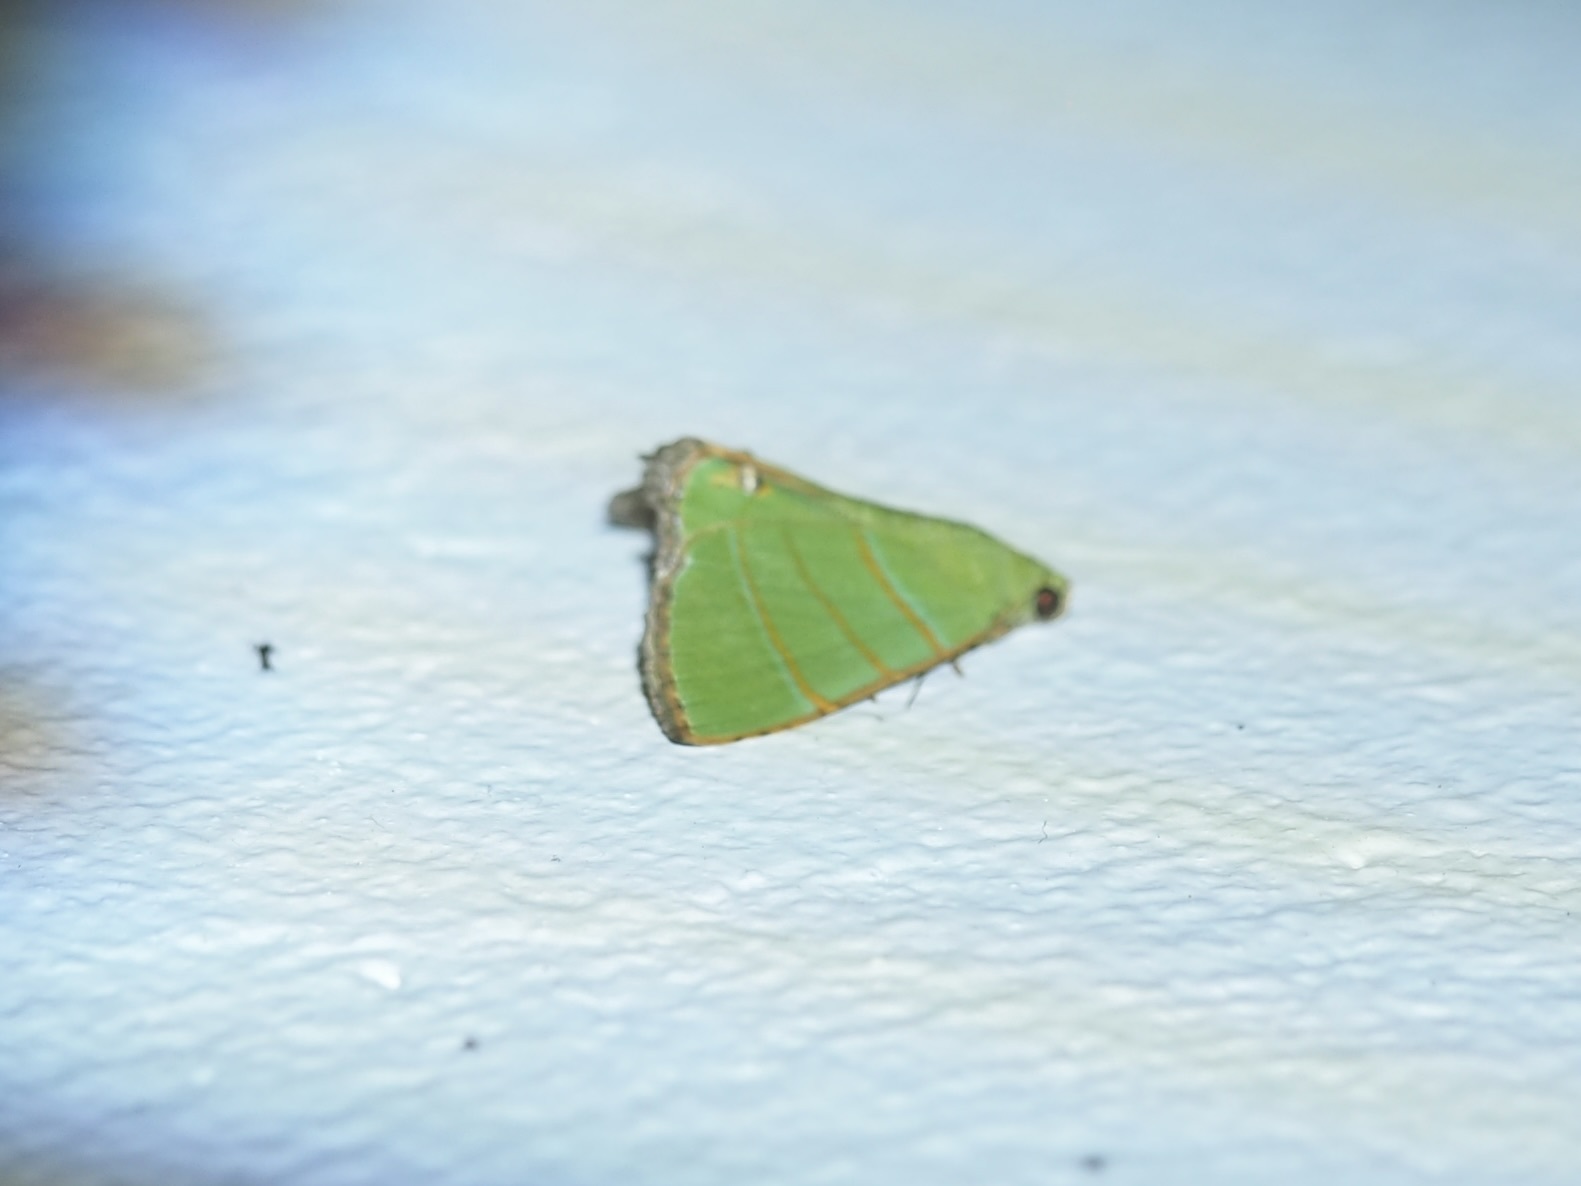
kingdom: Animalia
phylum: Arthropoda
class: Insecta
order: Lepidoptera
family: Erebidae
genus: Eulepidotis
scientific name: Eulepidotis folium
